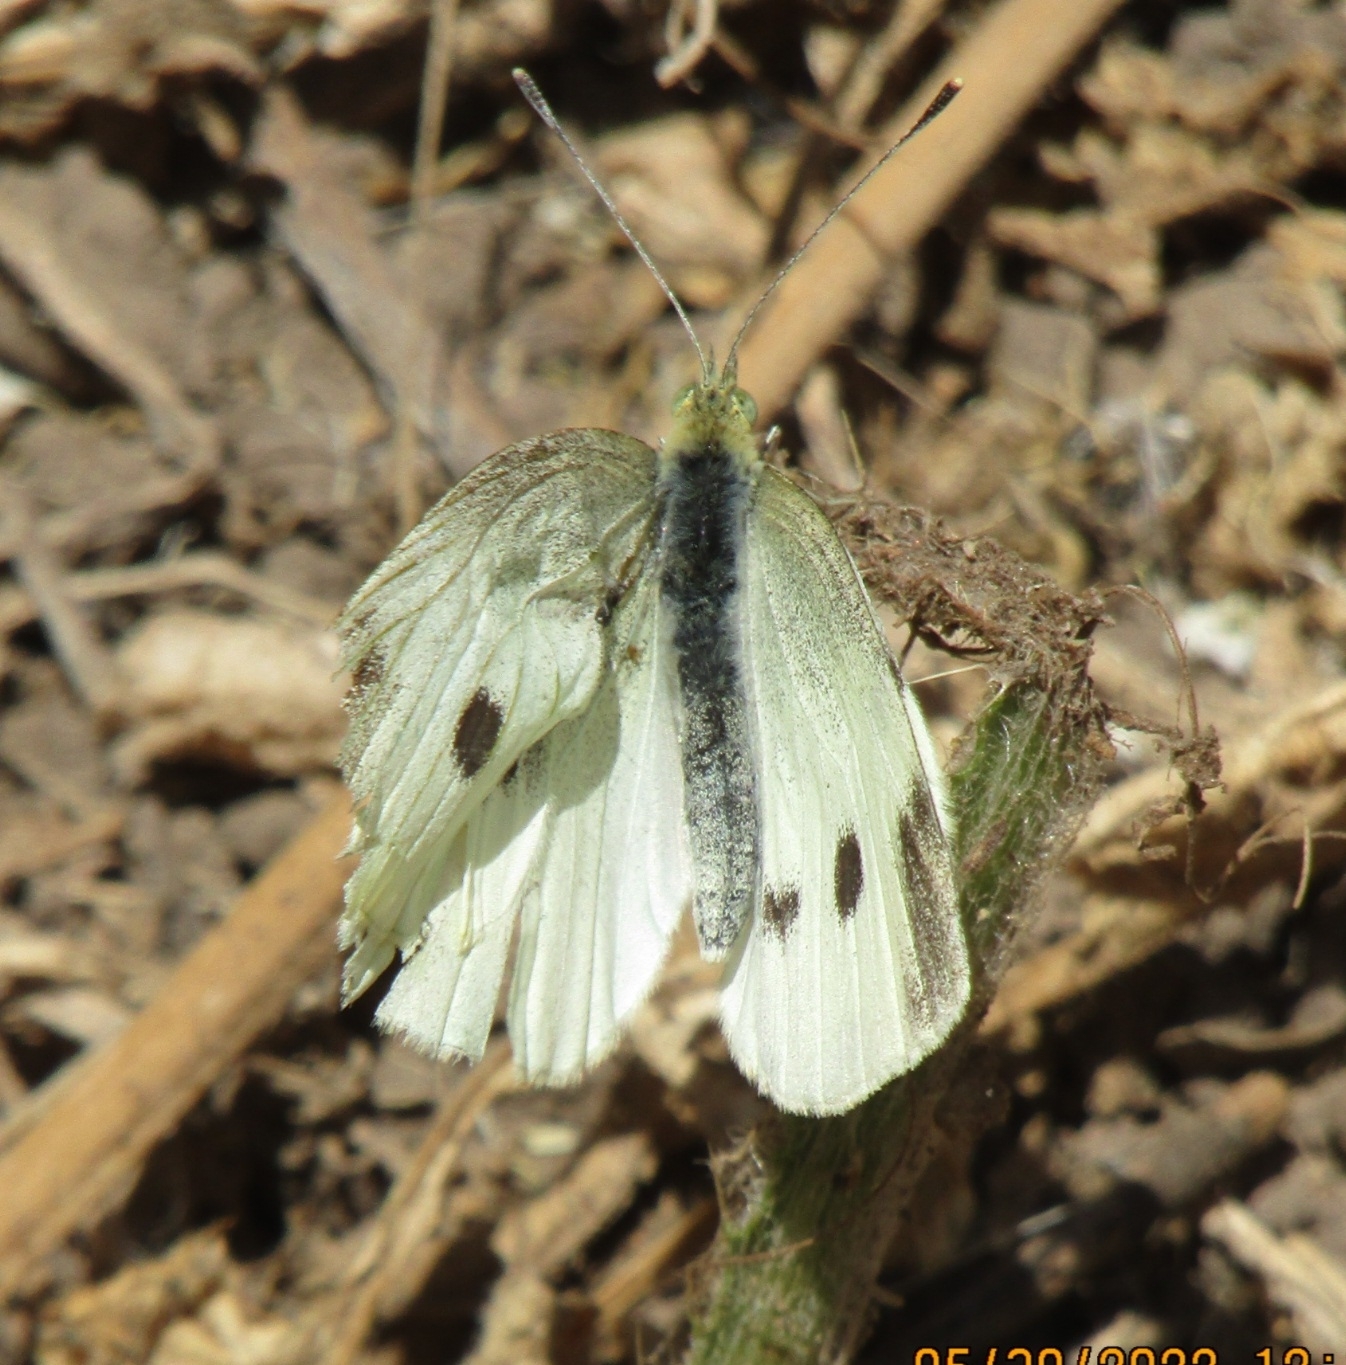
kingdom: Animalia
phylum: Arthropoda
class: Insecta
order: Lepidoptera
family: Pieridae
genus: Pieris
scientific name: Pieris rapae
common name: Small white
